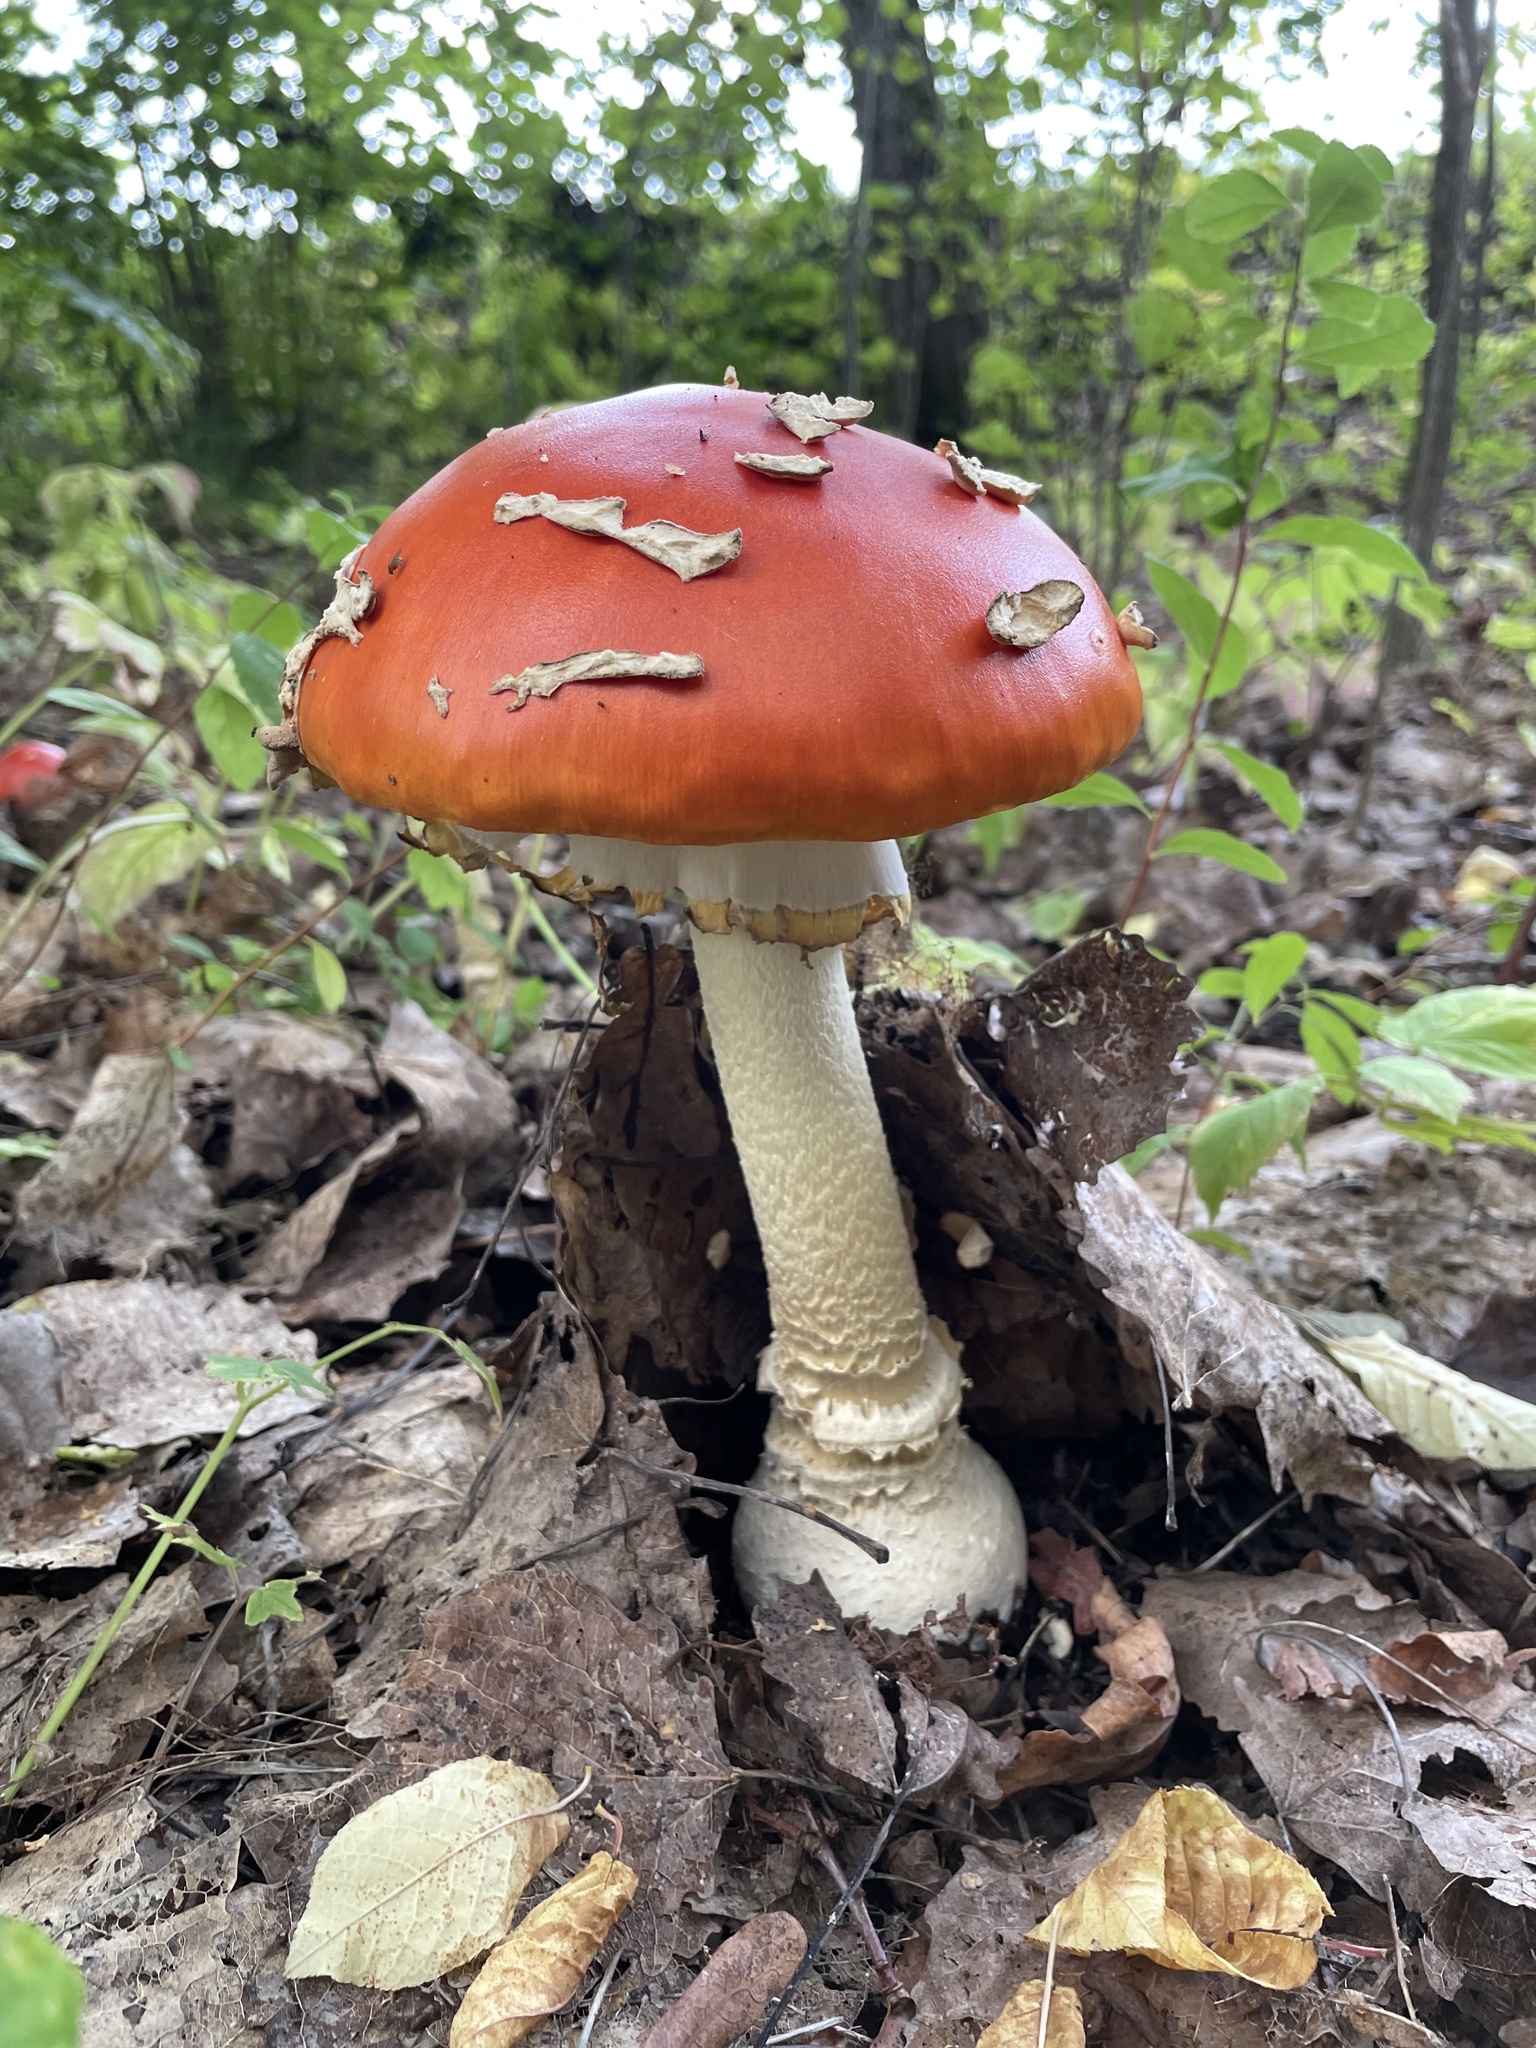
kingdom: Fungi
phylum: Basidiomycota
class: Agaricomycetes
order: Agaricales
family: Amanitaceae
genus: Amanita
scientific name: Amanita muscaria
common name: Fly agaric
